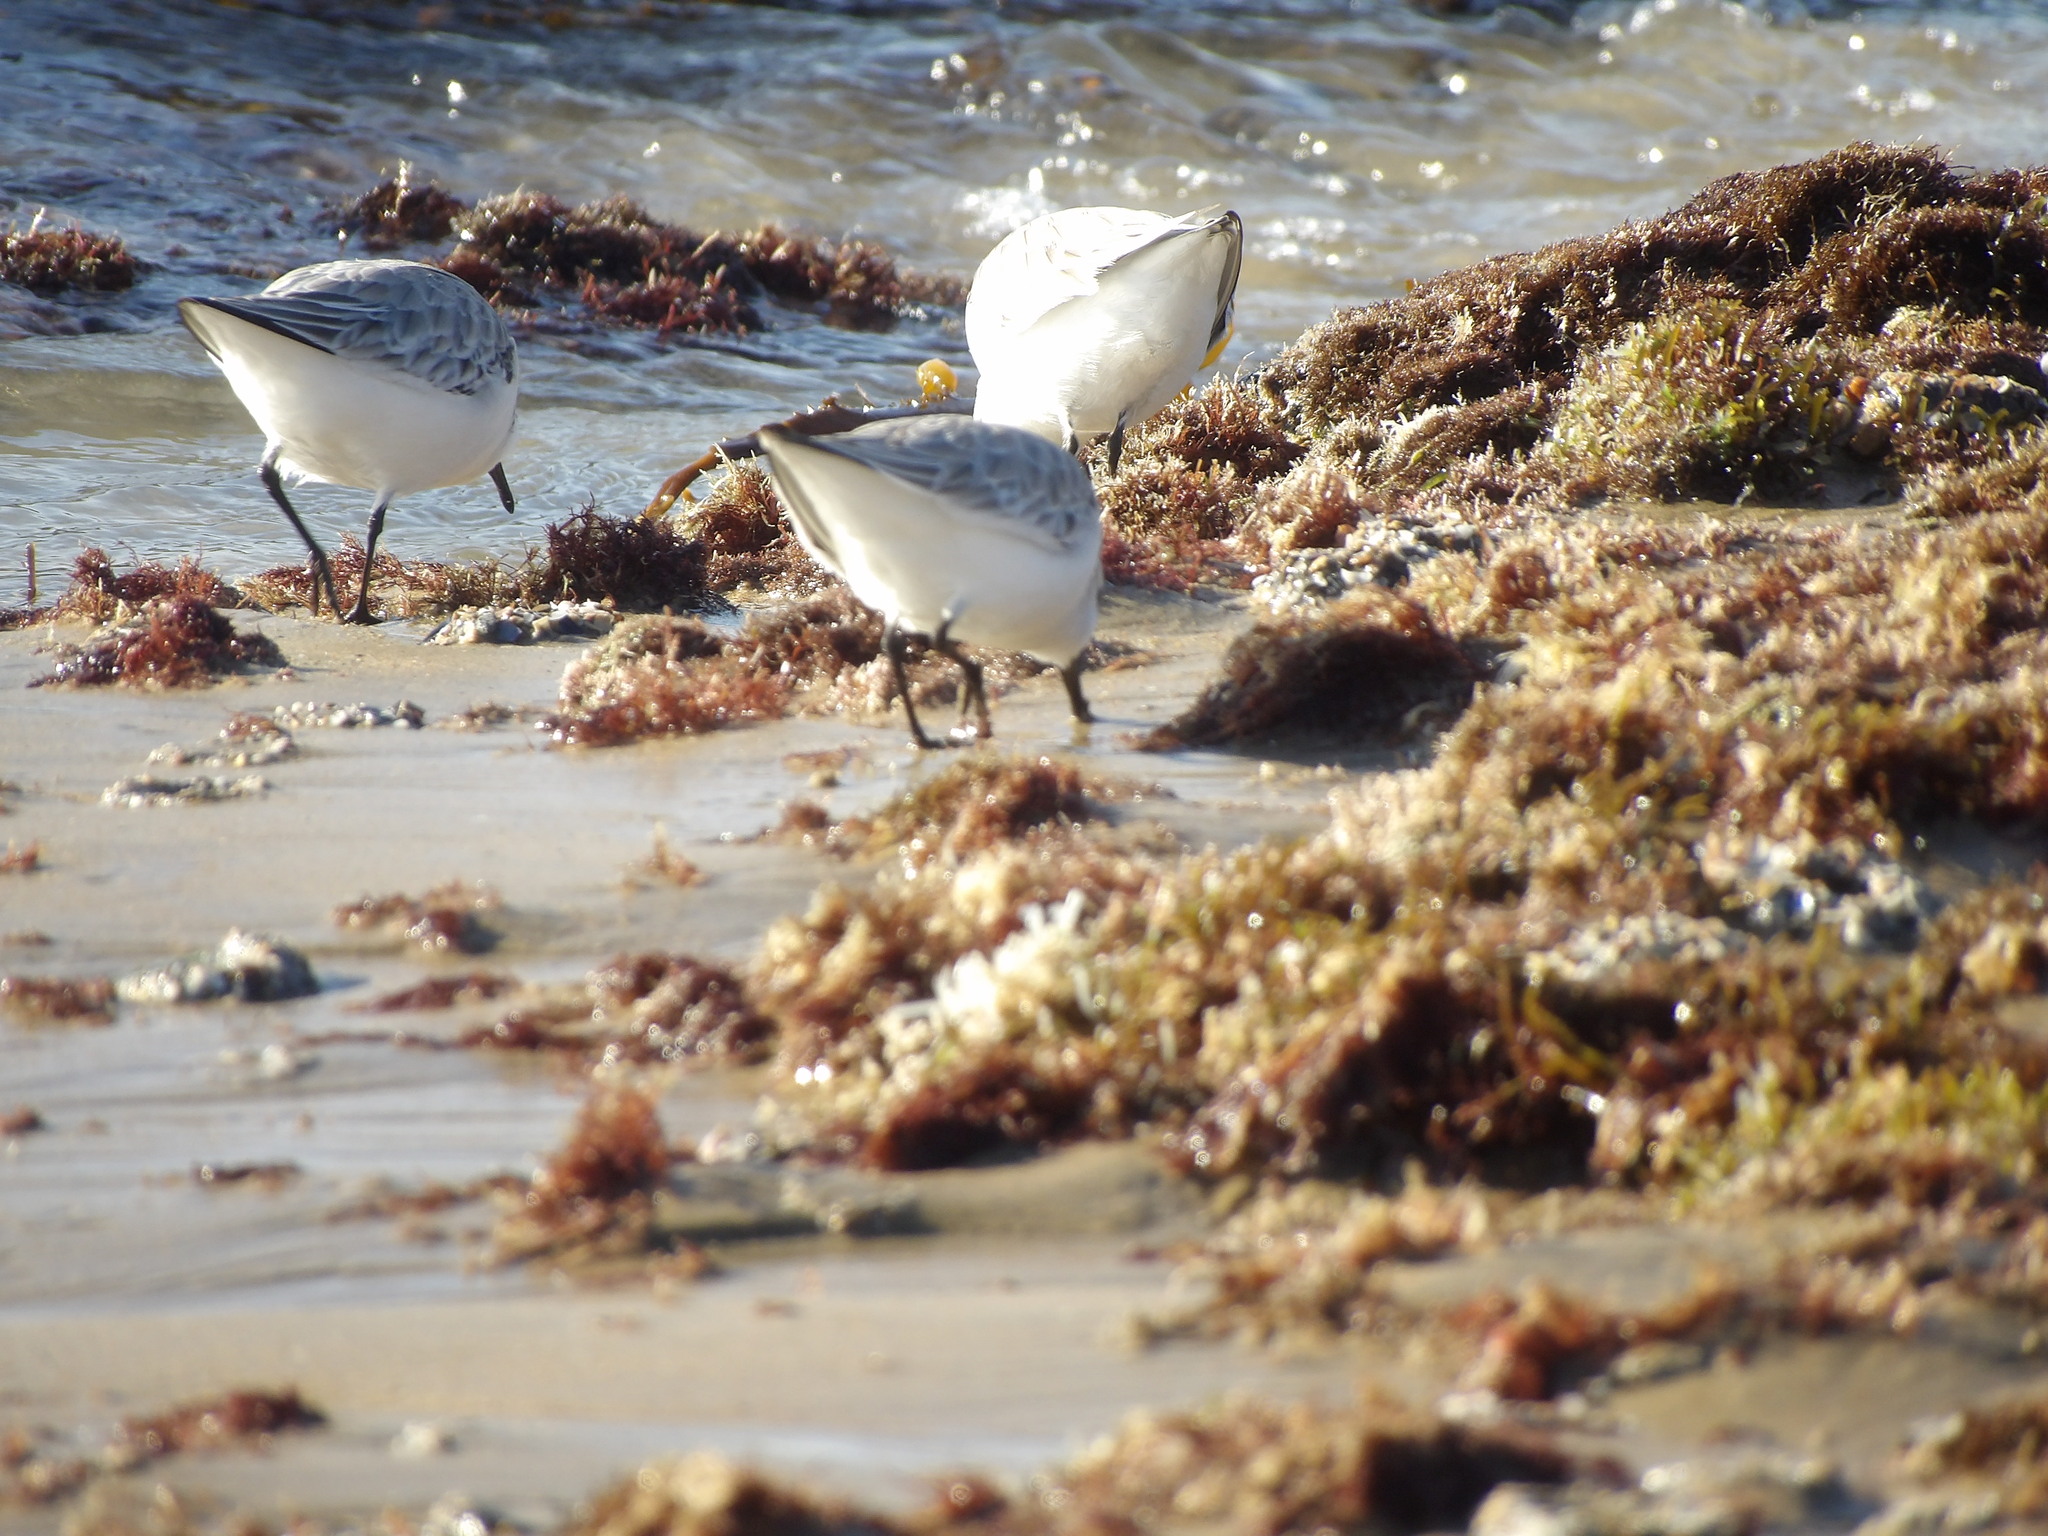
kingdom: Animalia
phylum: Chordata
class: Aves
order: Charadriiformes
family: Scolopacidae
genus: Calidris
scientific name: Calidris alba
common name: Sanderling
